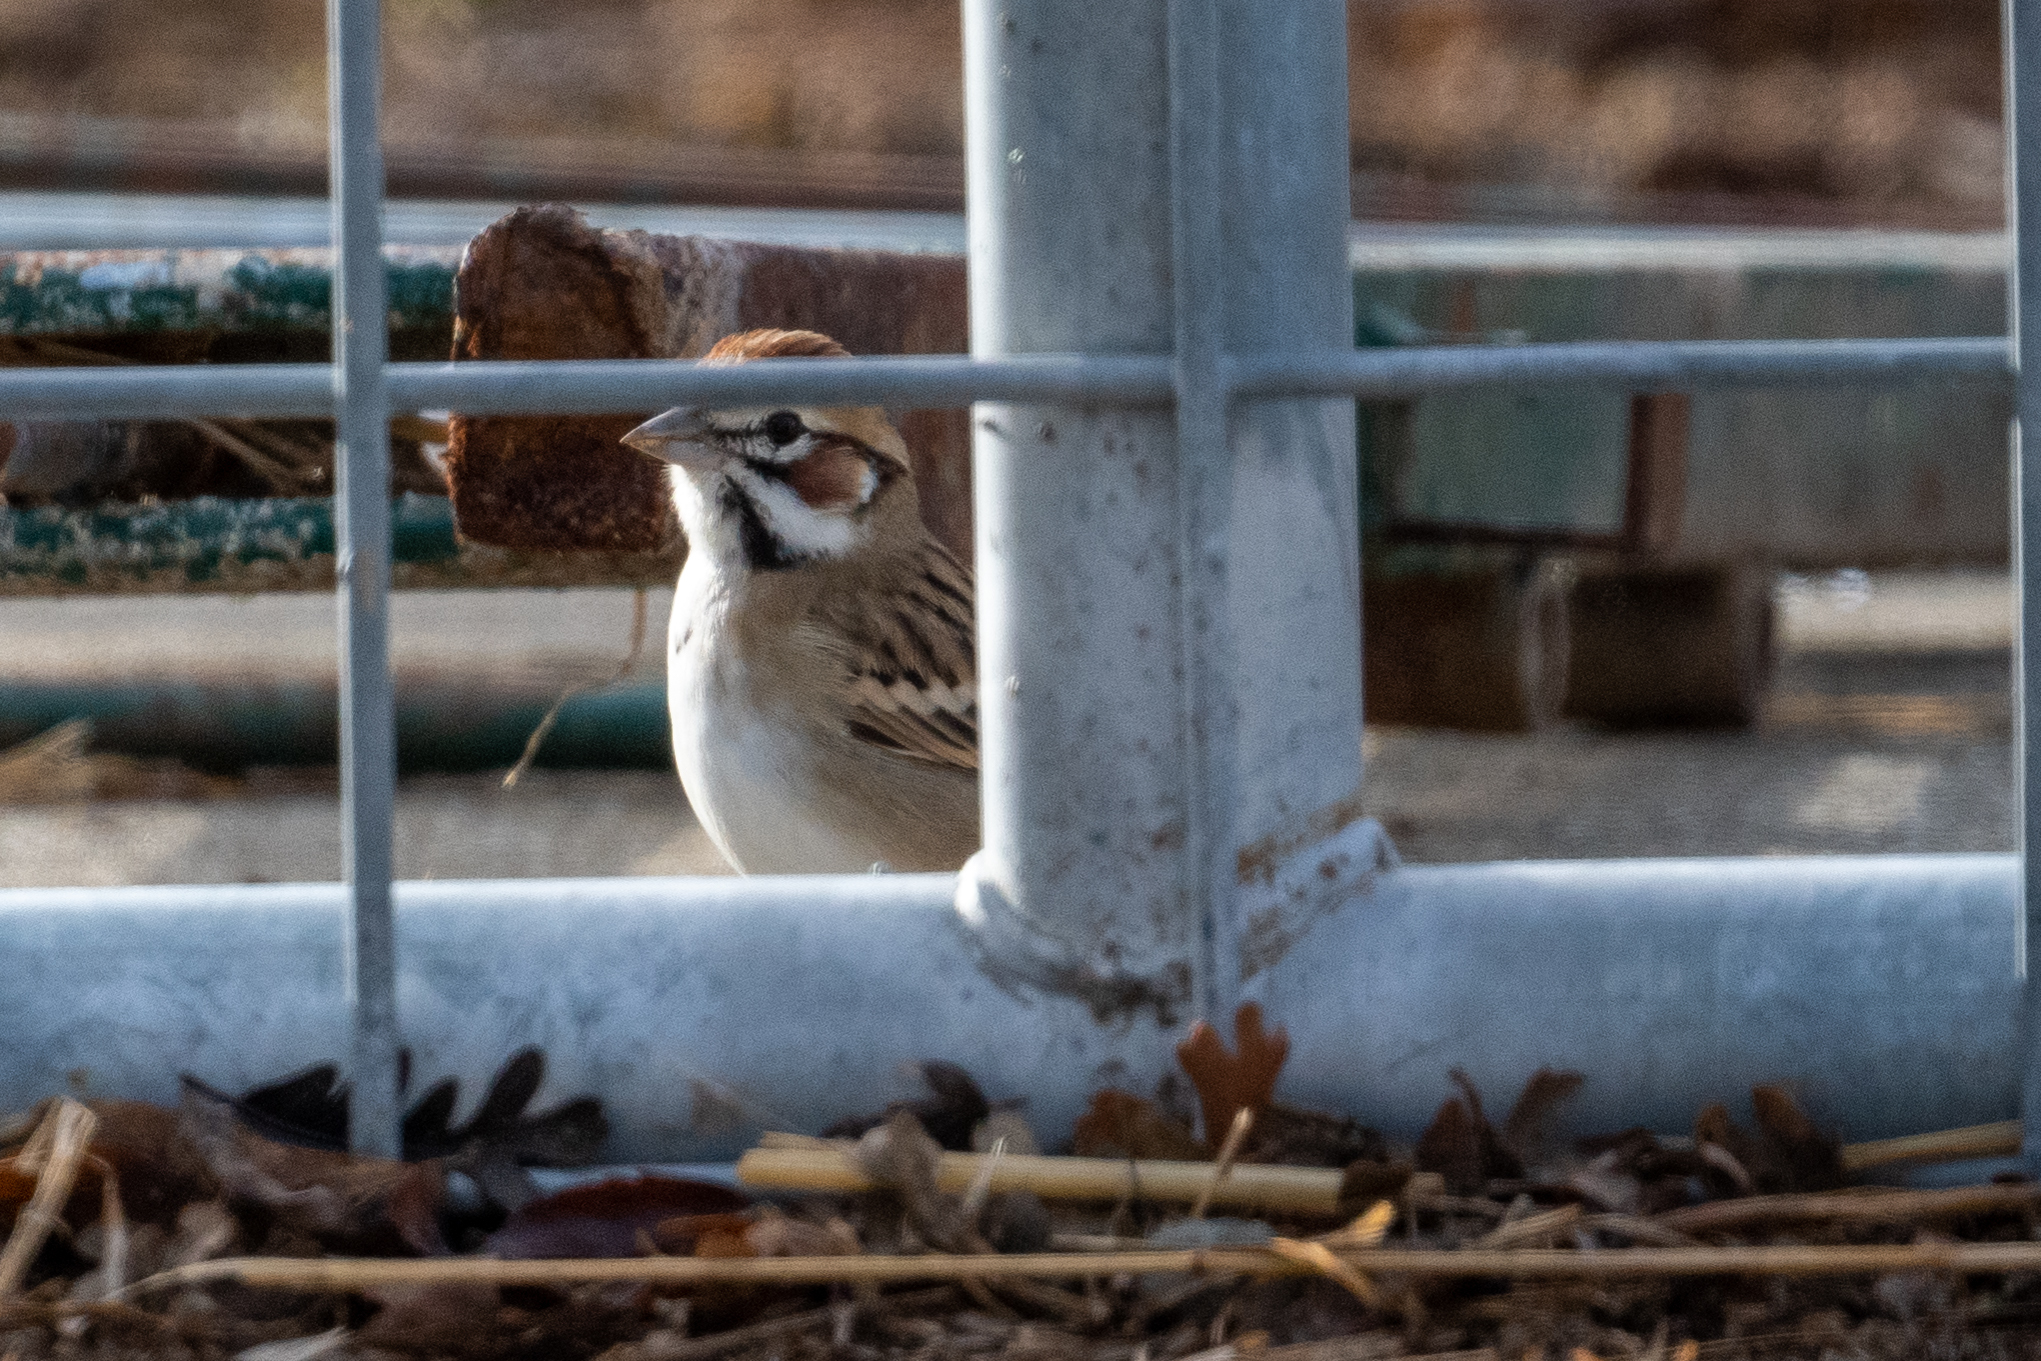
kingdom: Animalia
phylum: Chordata
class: Aves
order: Passeriformes
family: Passerellidae
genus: Chondestes
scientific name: Chondestes grammacus
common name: Lark sparrow
